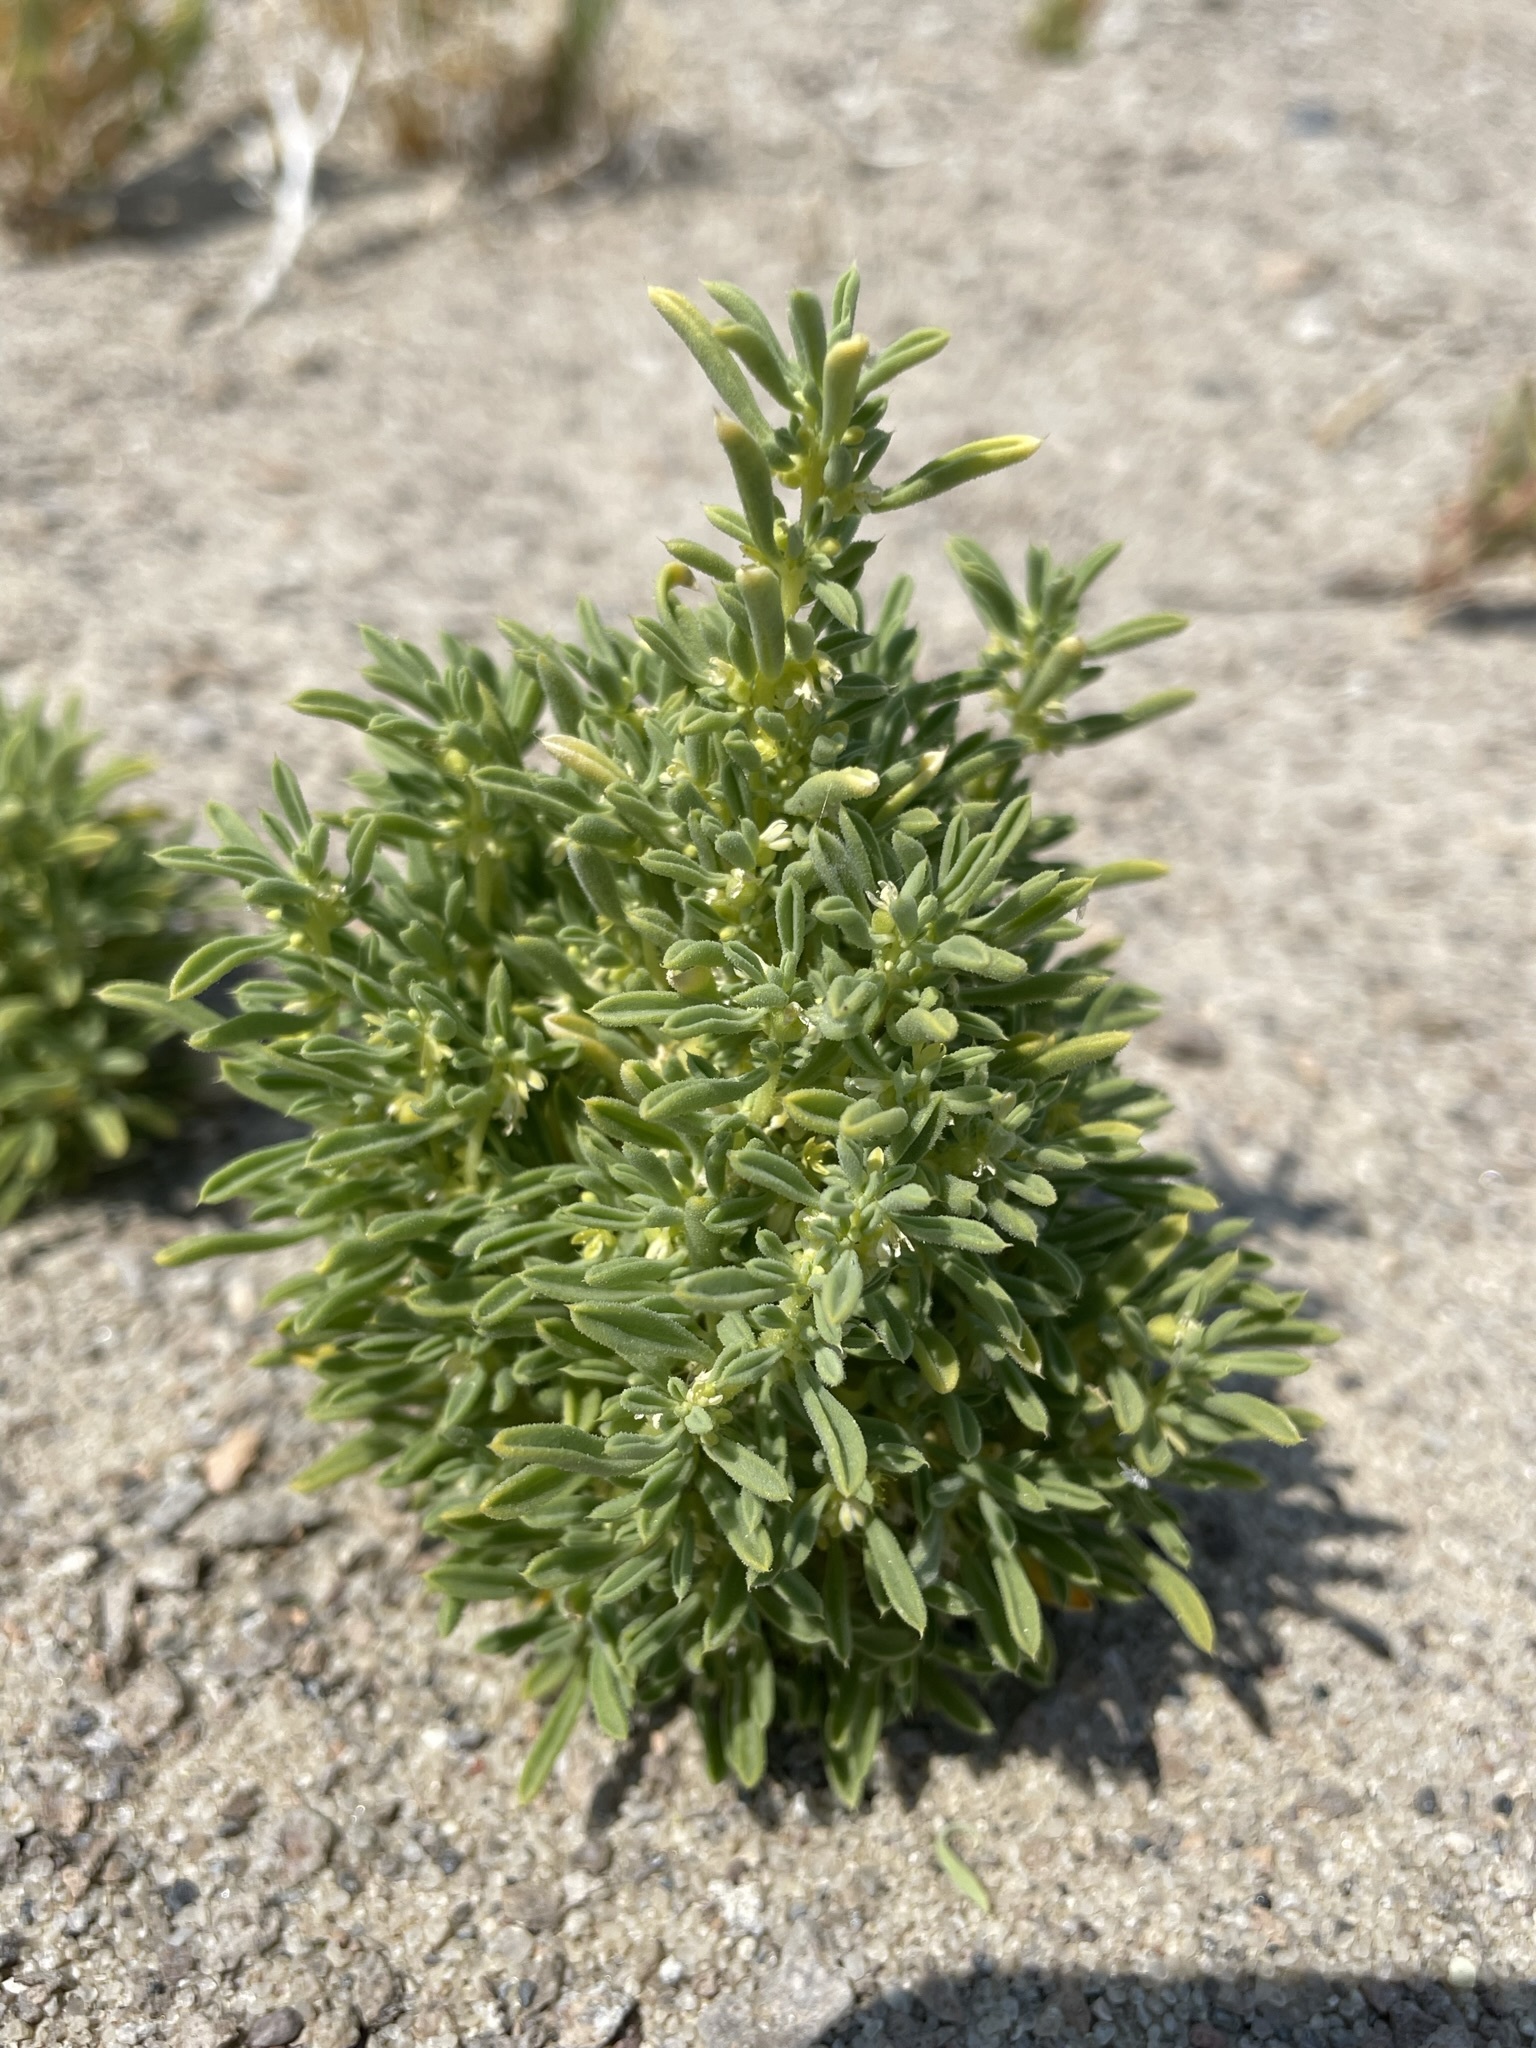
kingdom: Plantae
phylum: Tracheophyta
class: Magnoliopsida
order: Brassicales
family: Cleomaceae
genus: Cleomella
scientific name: Cleomella brevipes
